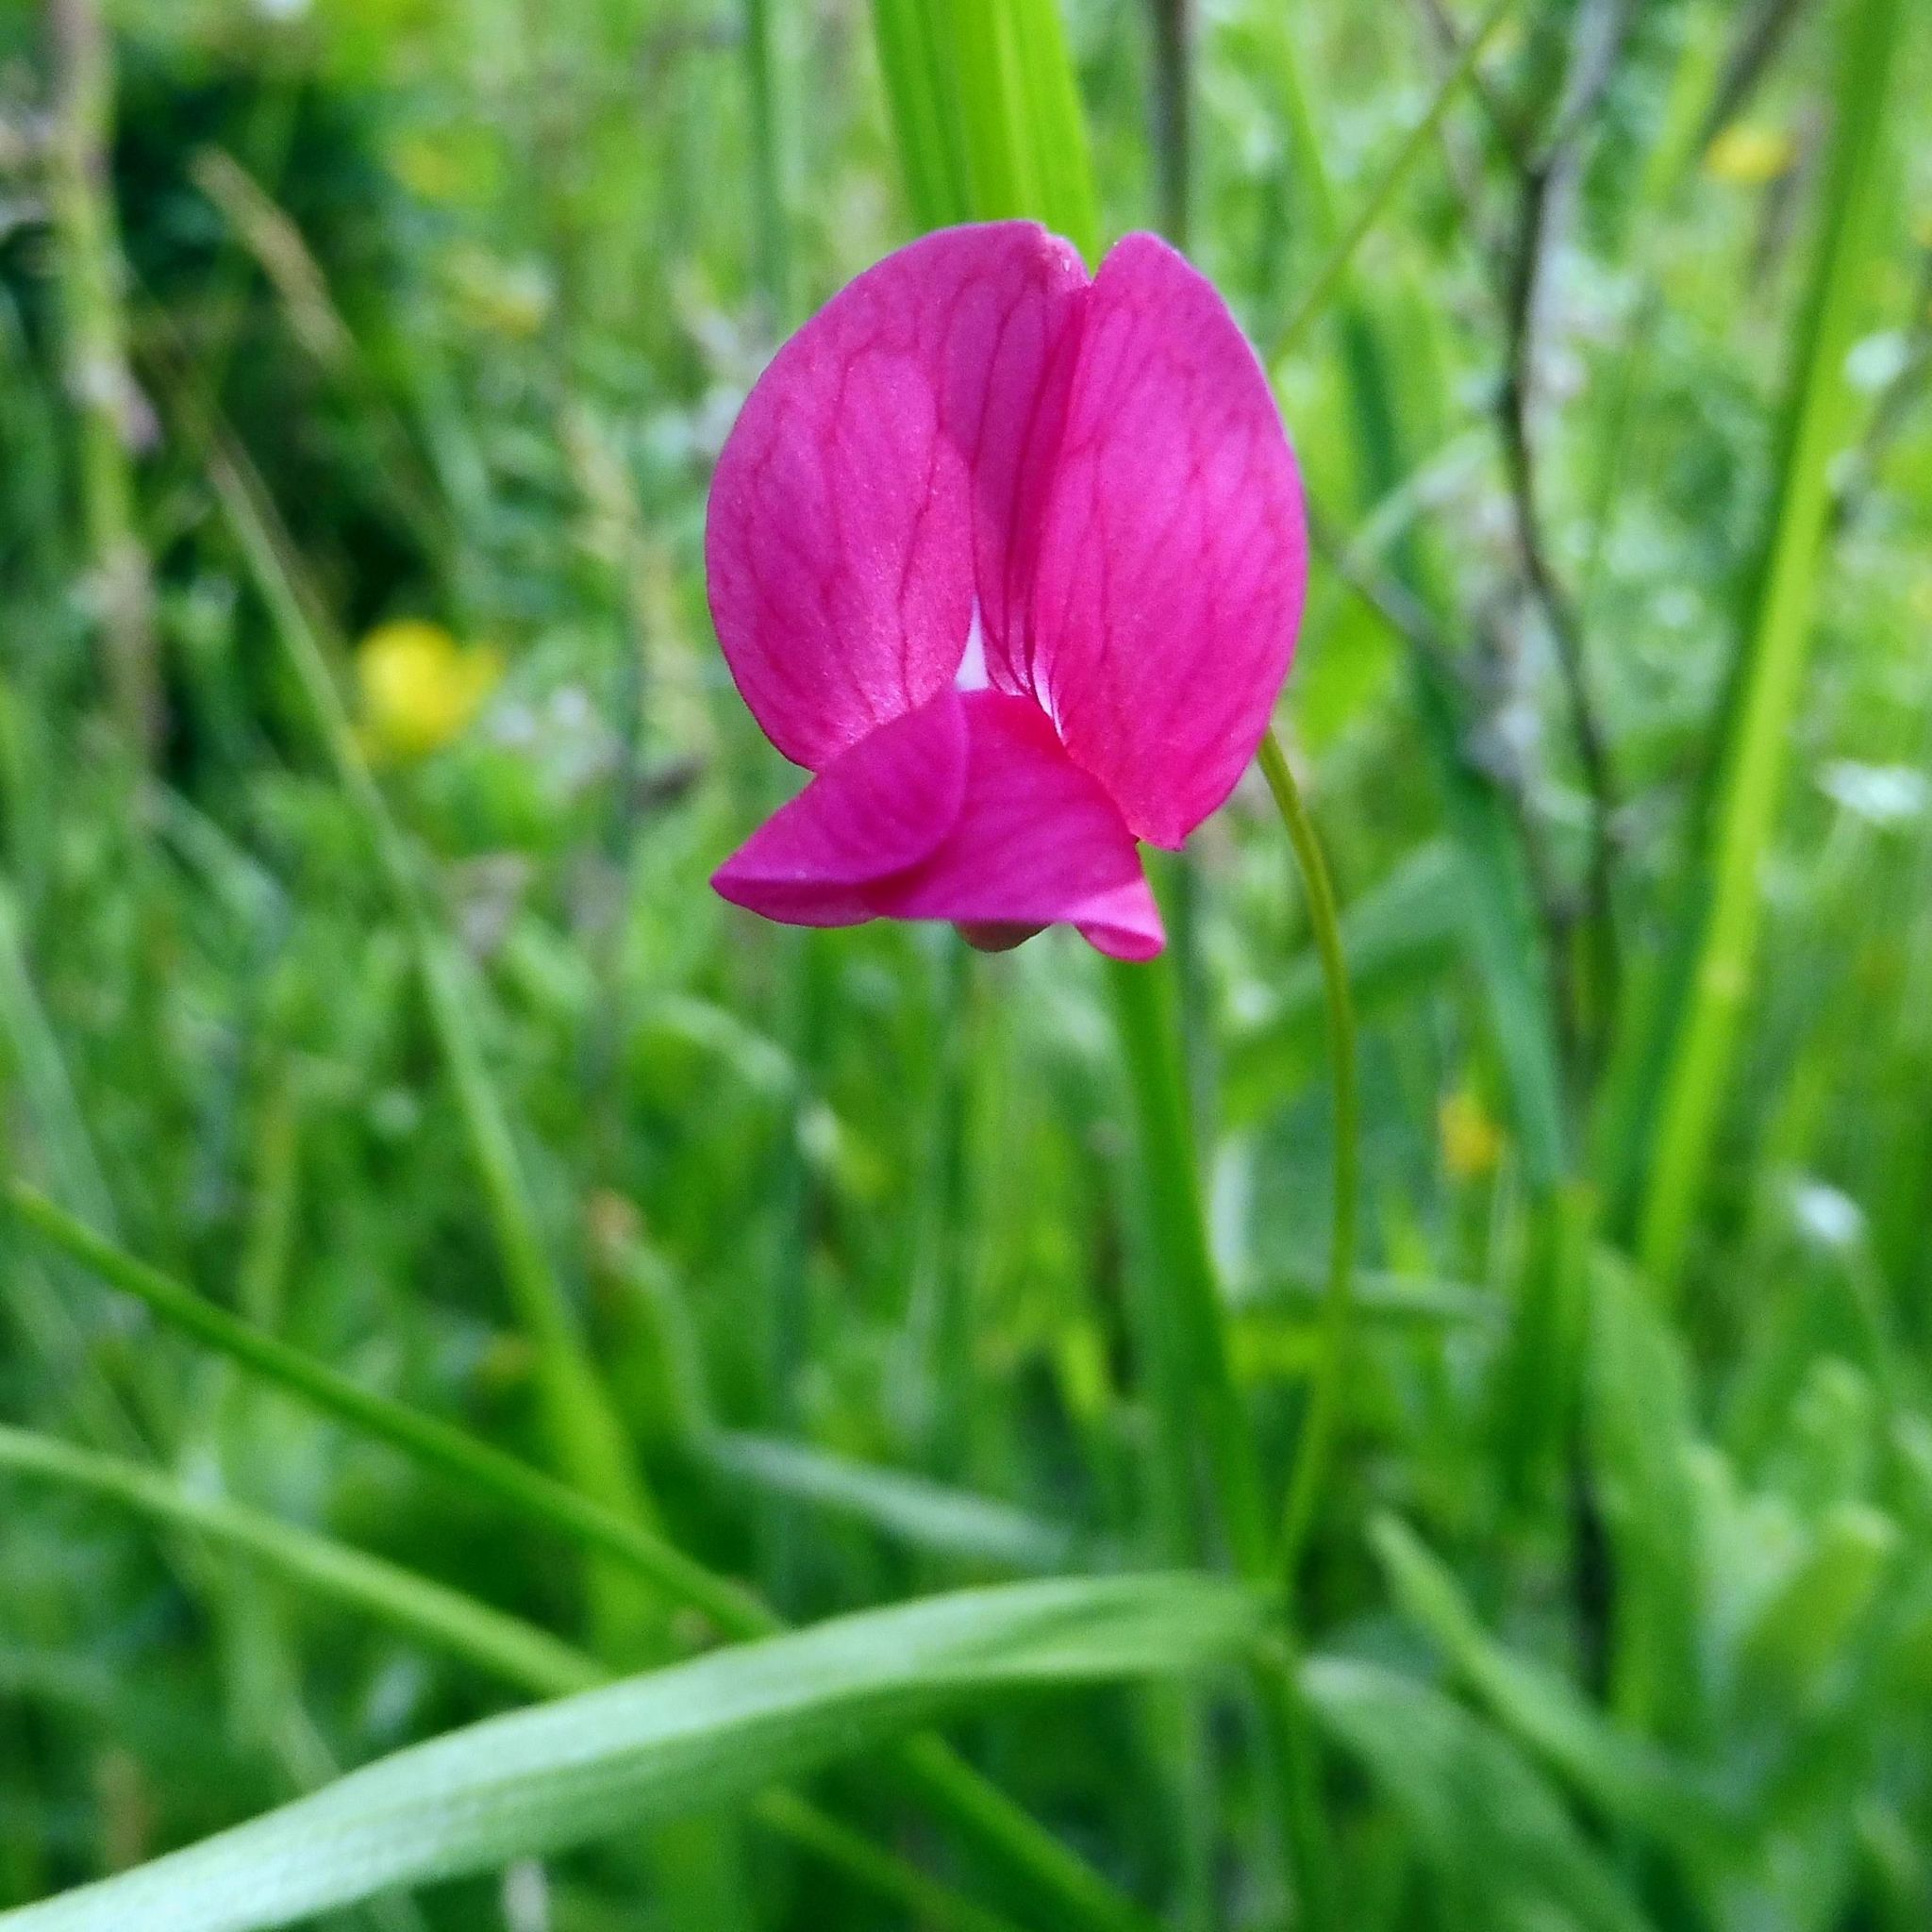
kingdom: Plantae
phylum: Tracheophyta
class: Magnoliopsida
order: Fabales
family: Fabaceae
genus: Lathyrus
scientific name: Lathyrus nissolia
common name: Grass vetchling
